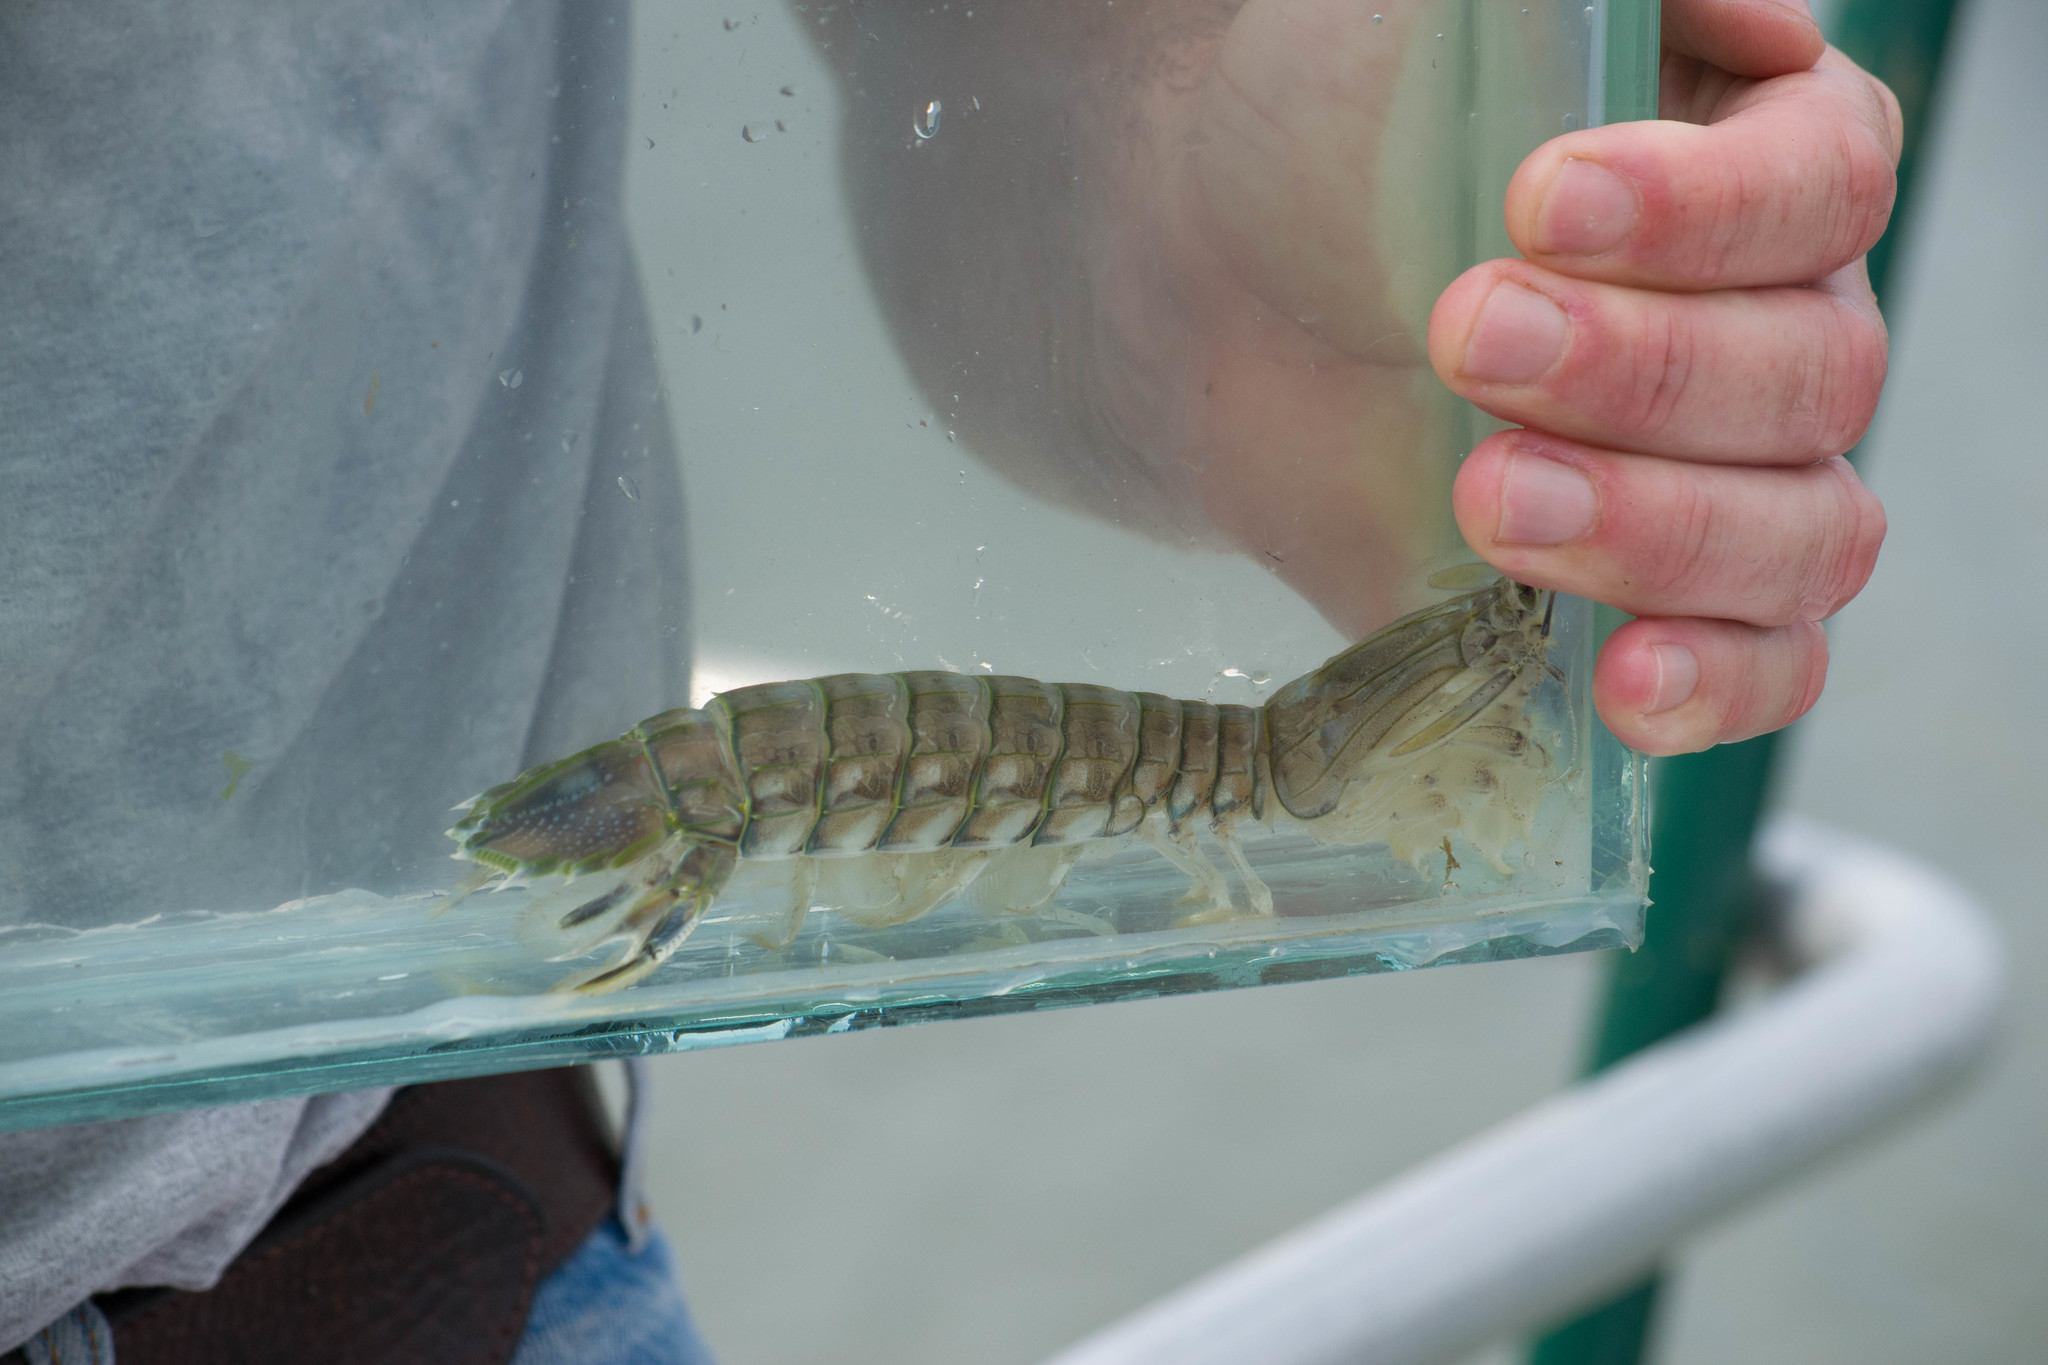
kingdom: Animalia
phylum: Arthropoda
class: Malacostraca
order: Stomatopoda
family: Squillidae
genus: Squilla
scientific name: Squilla empusa
